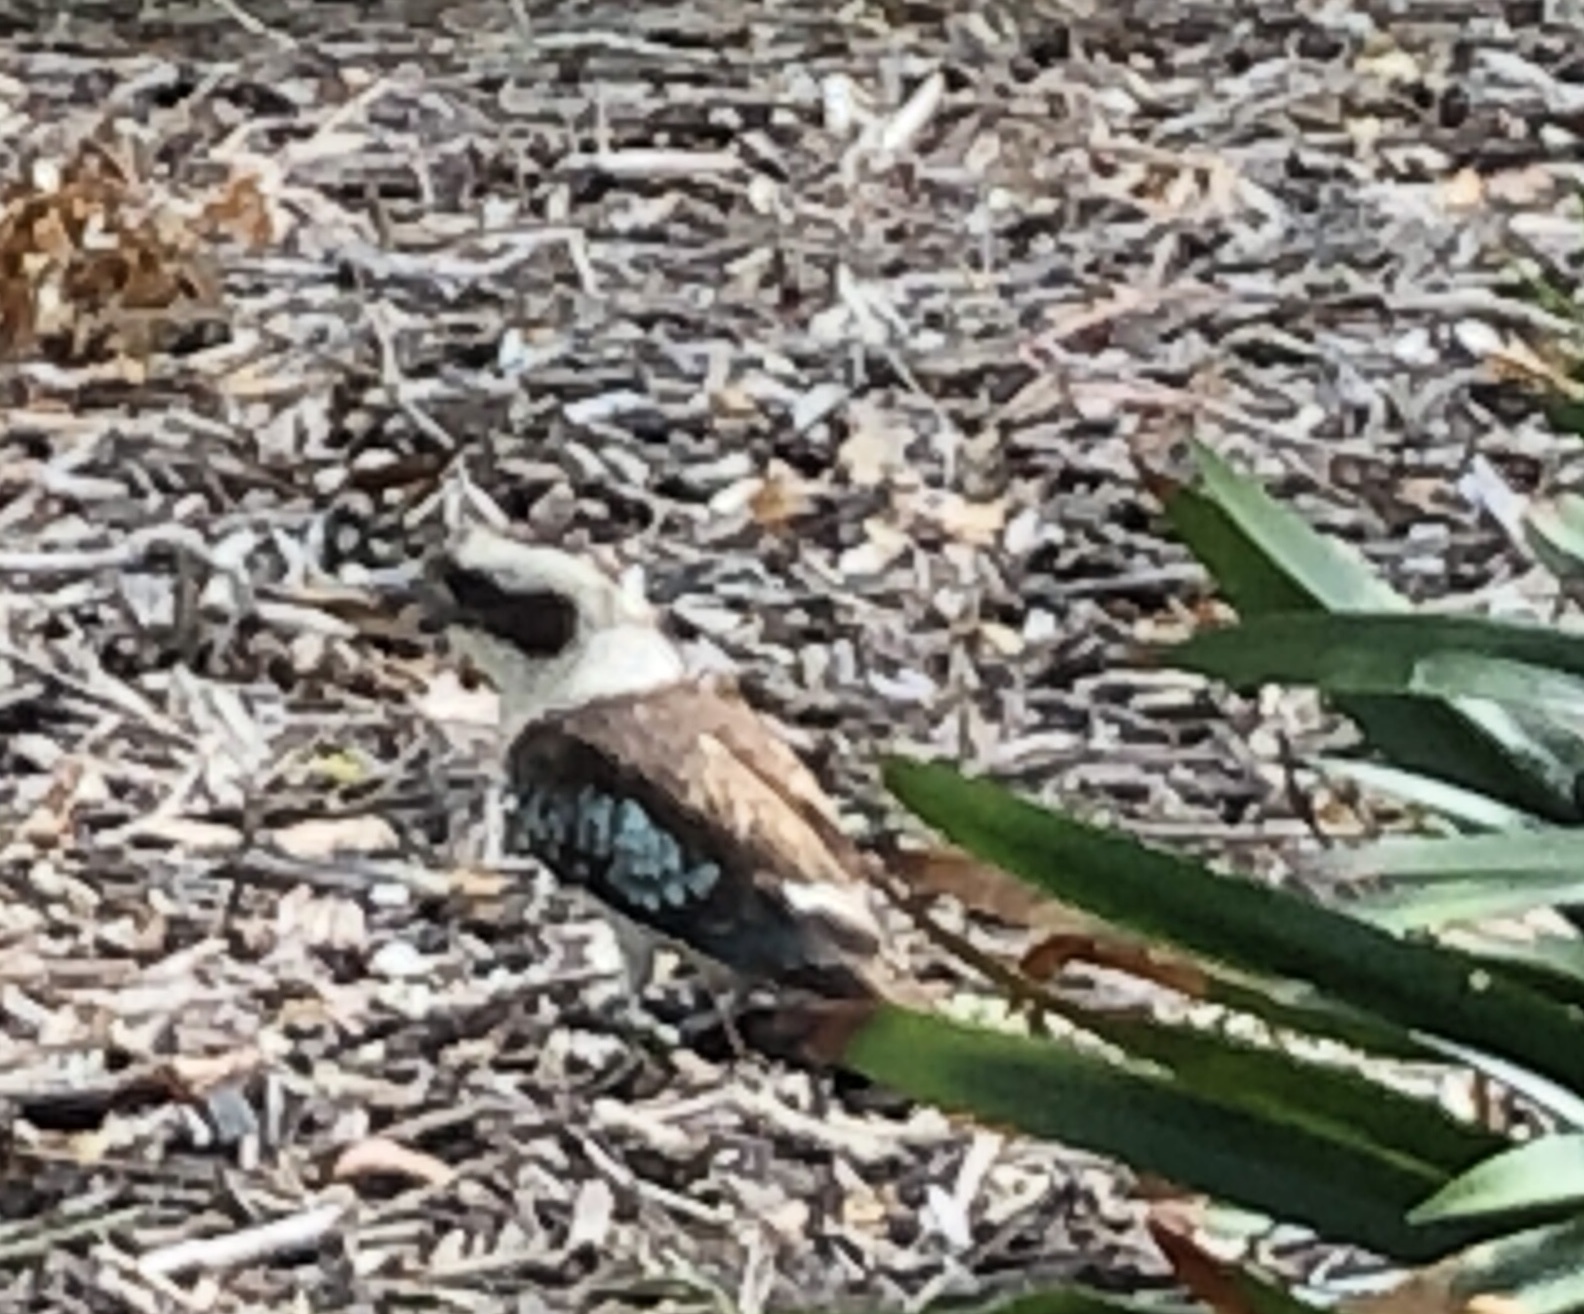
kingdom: Animalia
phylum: Chordata
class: Aves
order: Coraciiformes
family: Alcedinidae
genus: Dacelo
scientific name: Dacelo novaeguineae
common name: Laughing kookaburra
